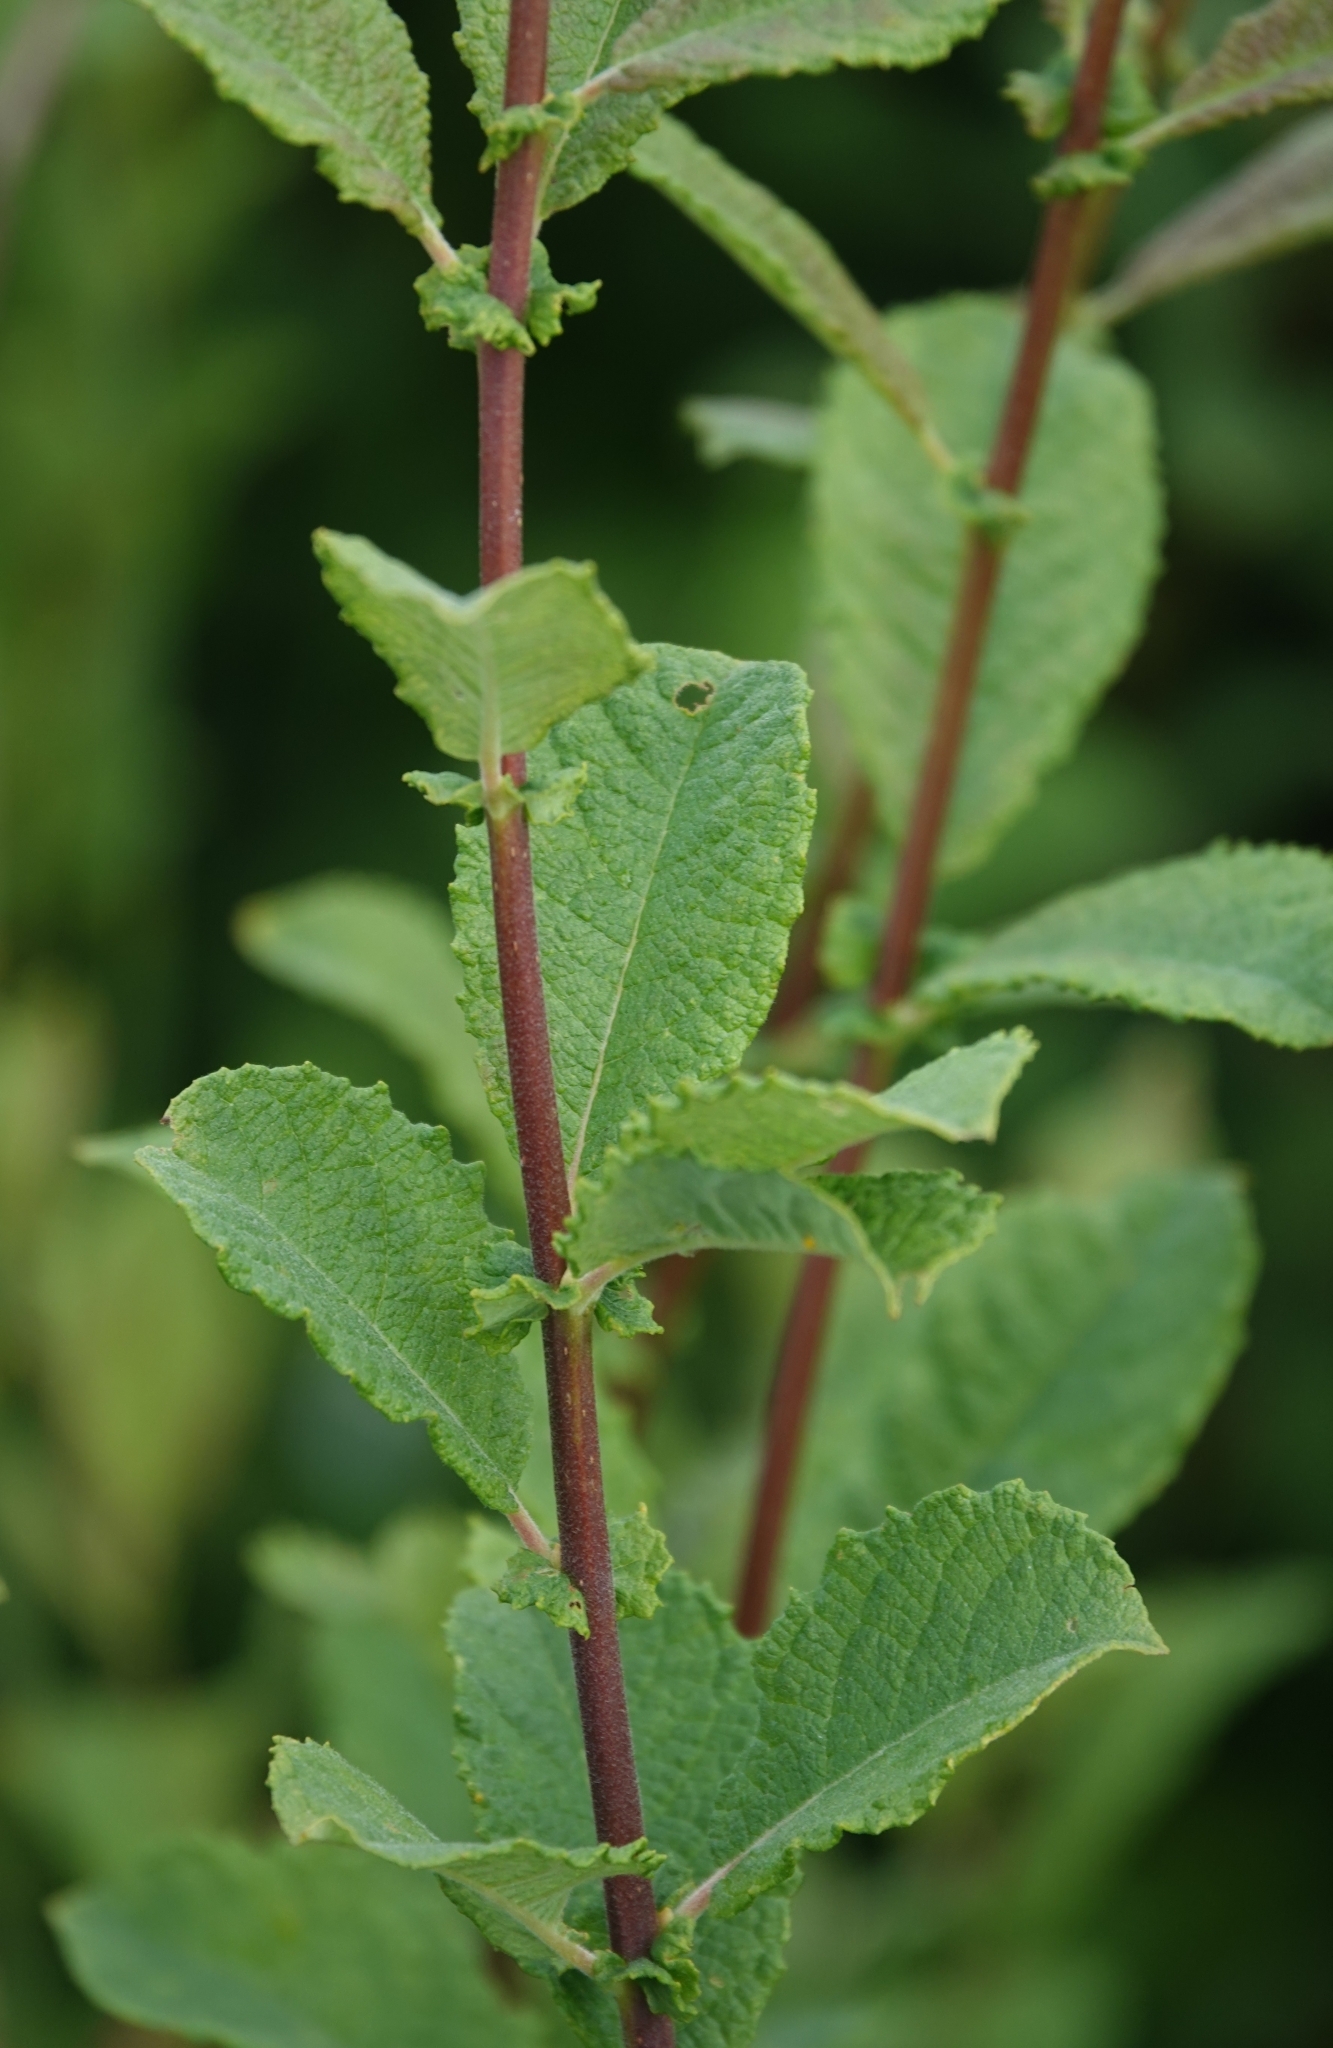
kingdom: Plantae
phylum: Tracheophyta
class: Magnoliopsida
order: Malpighiales
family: Salicaceae
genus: Salix
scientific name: Salix aurita
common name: Eared willow
